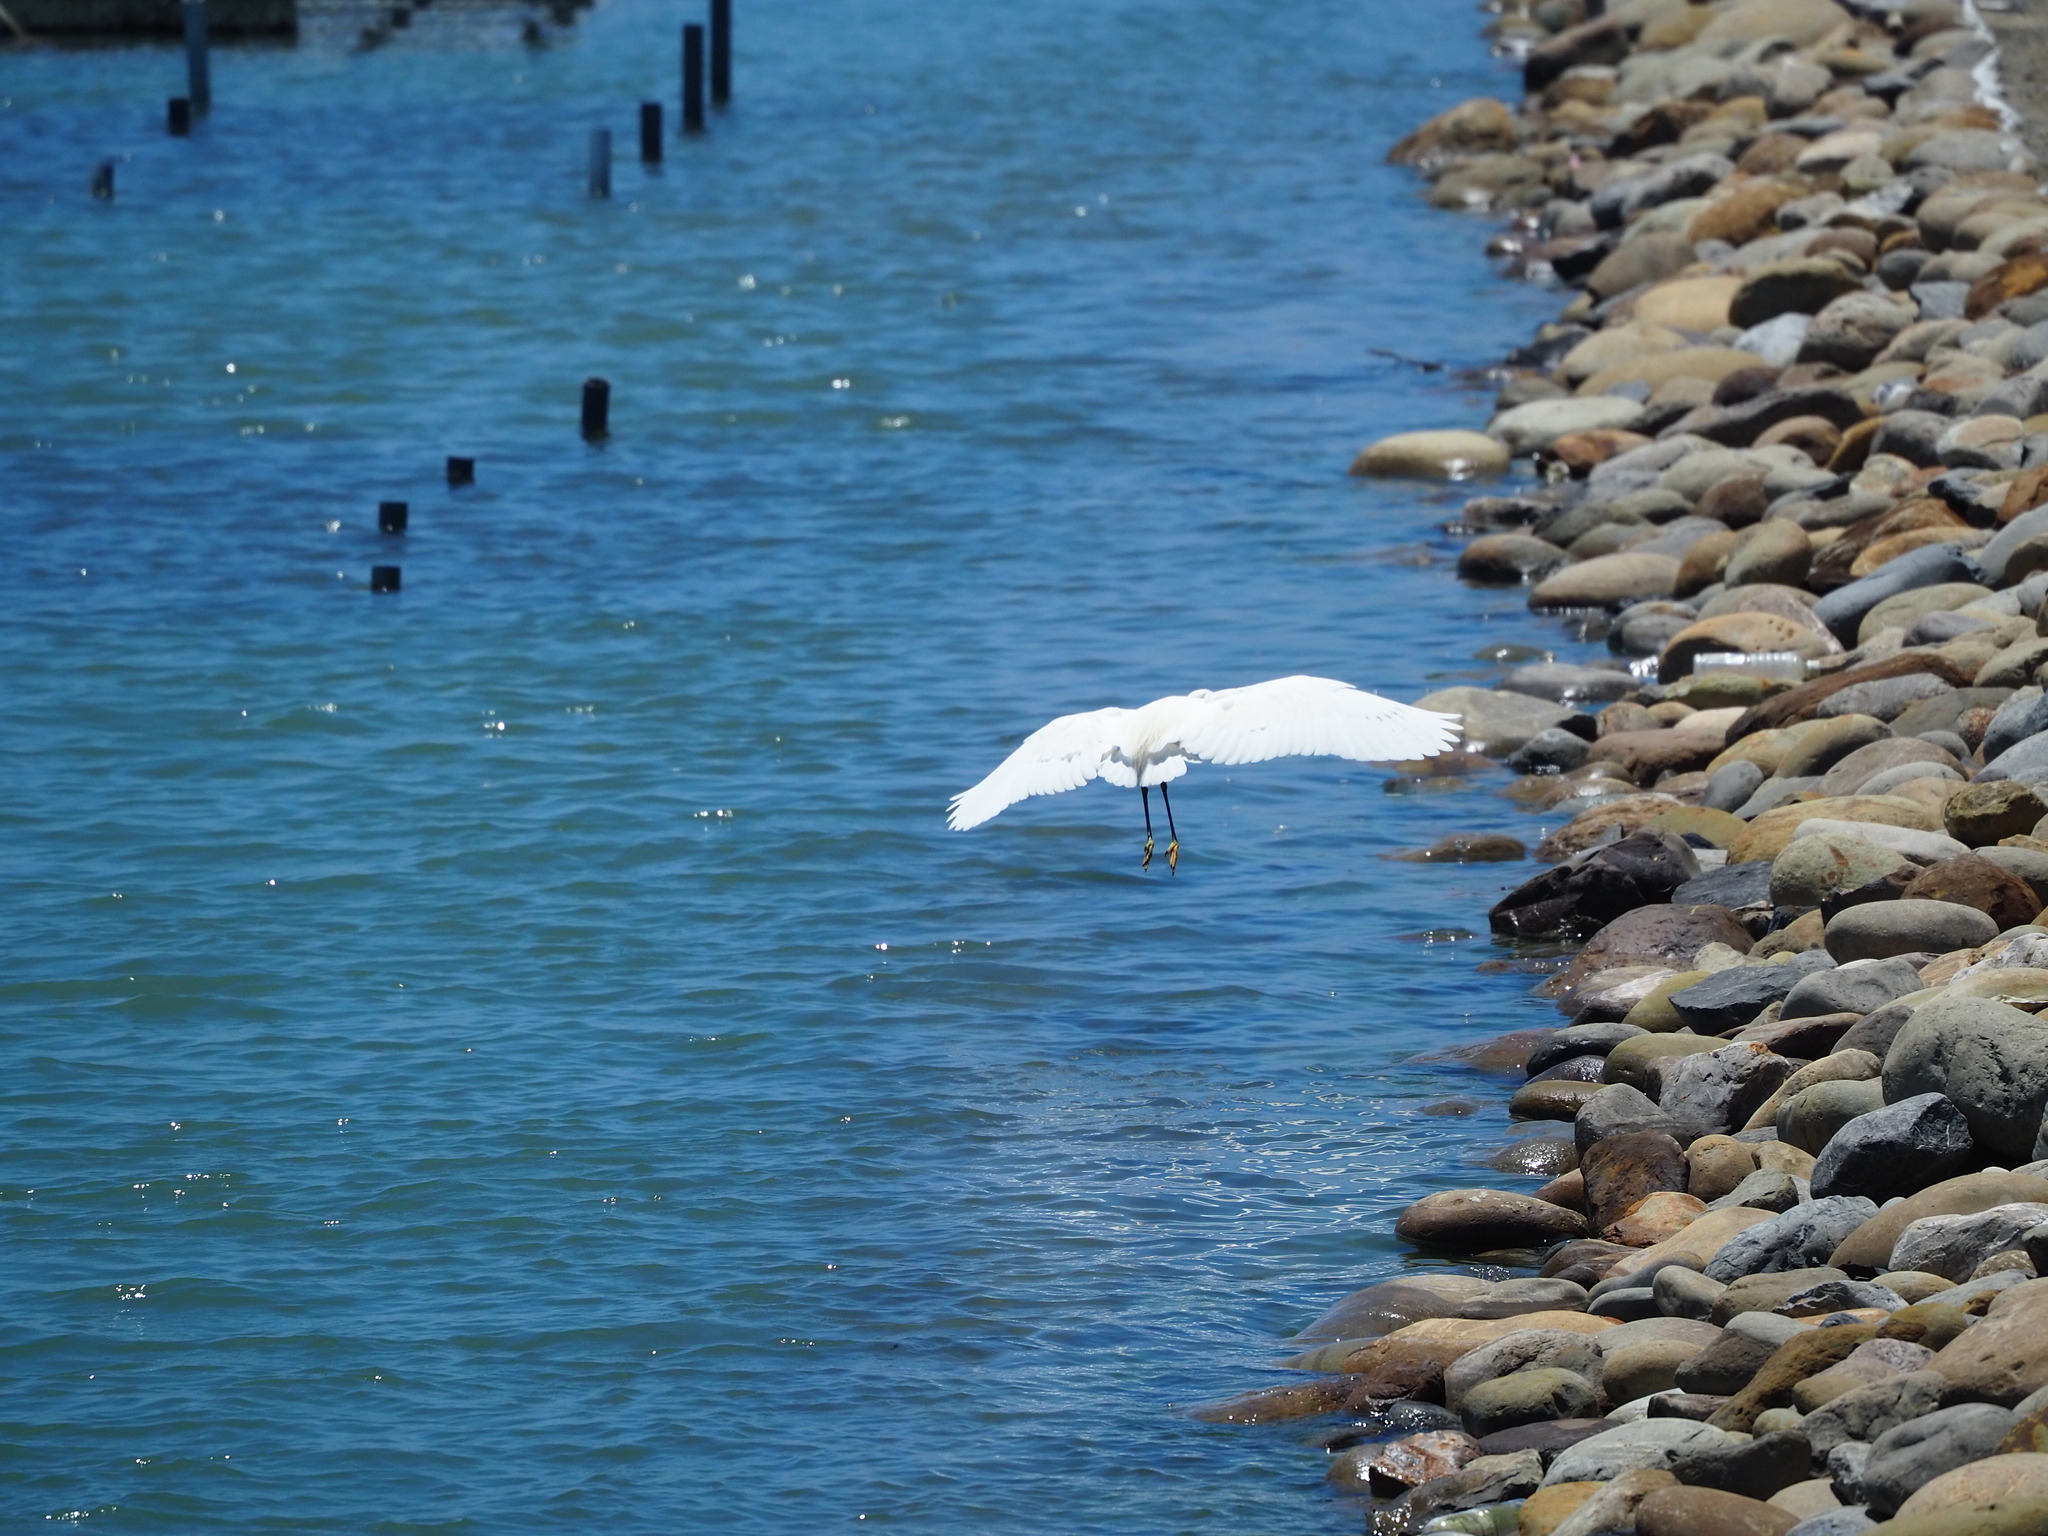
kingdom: Animalia
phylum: Chordata
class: Aves
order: Pelecaniformes
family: Ardeidae
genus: Egretta
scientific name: Egretta garzetta
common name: Little egret
